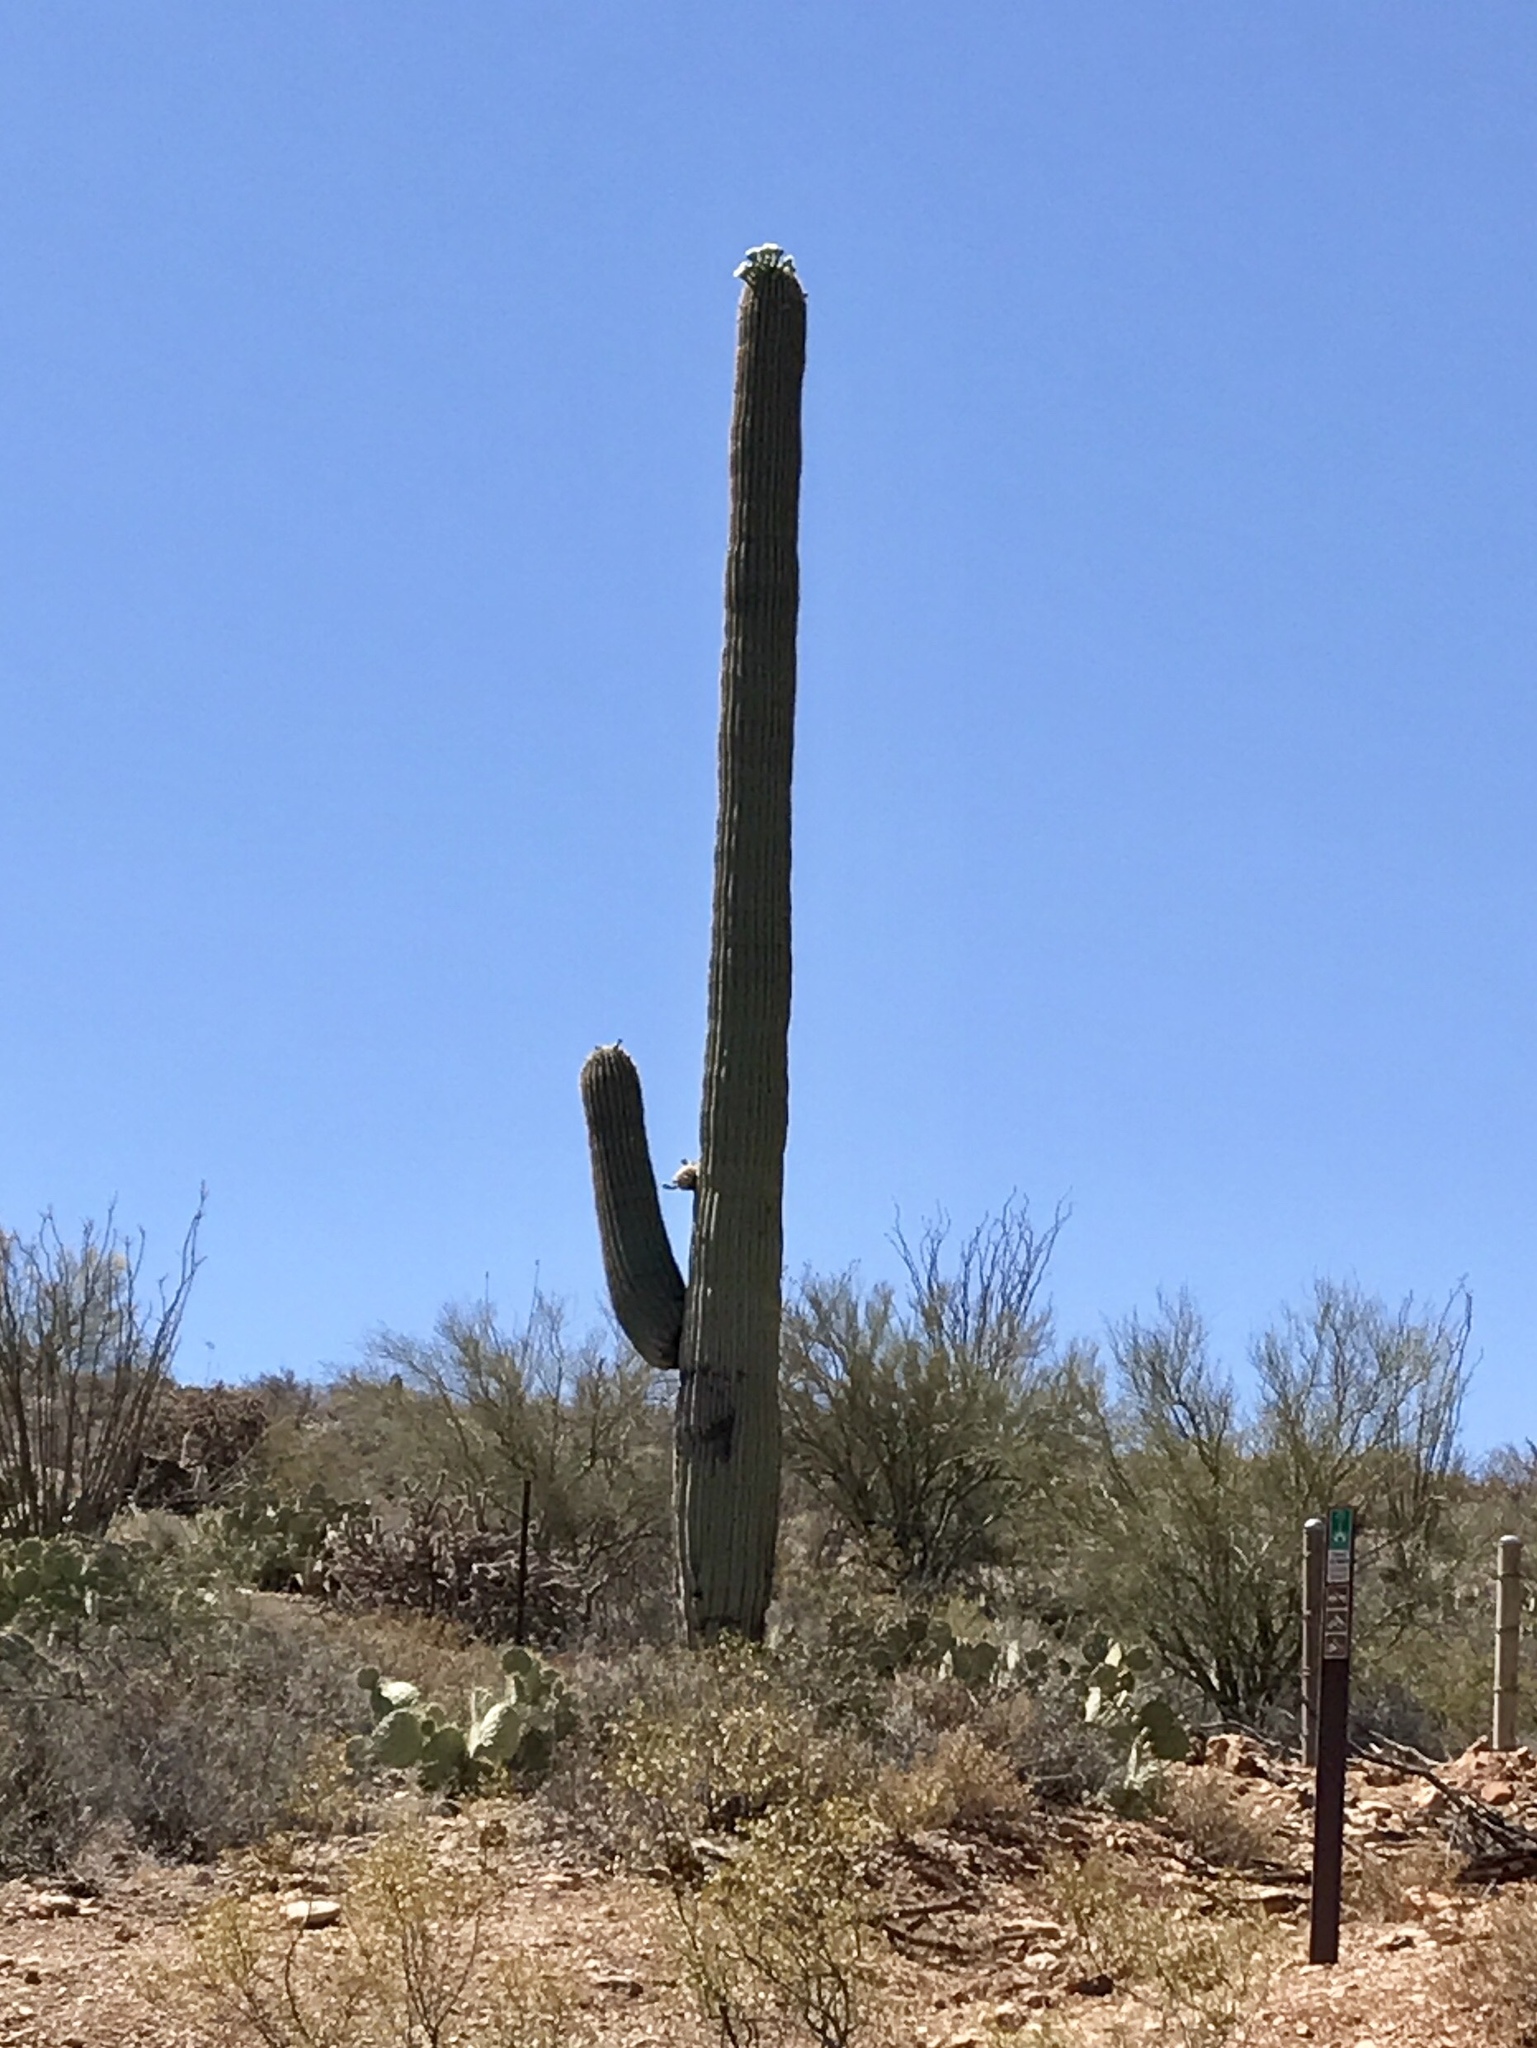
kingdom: Plantae
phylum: Tracheophyta
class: Magnoliopsida
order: Caryophyllales
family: Cactaceae
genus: Carnegiea
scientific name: Carnegiea gigantea
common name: Saguaro
